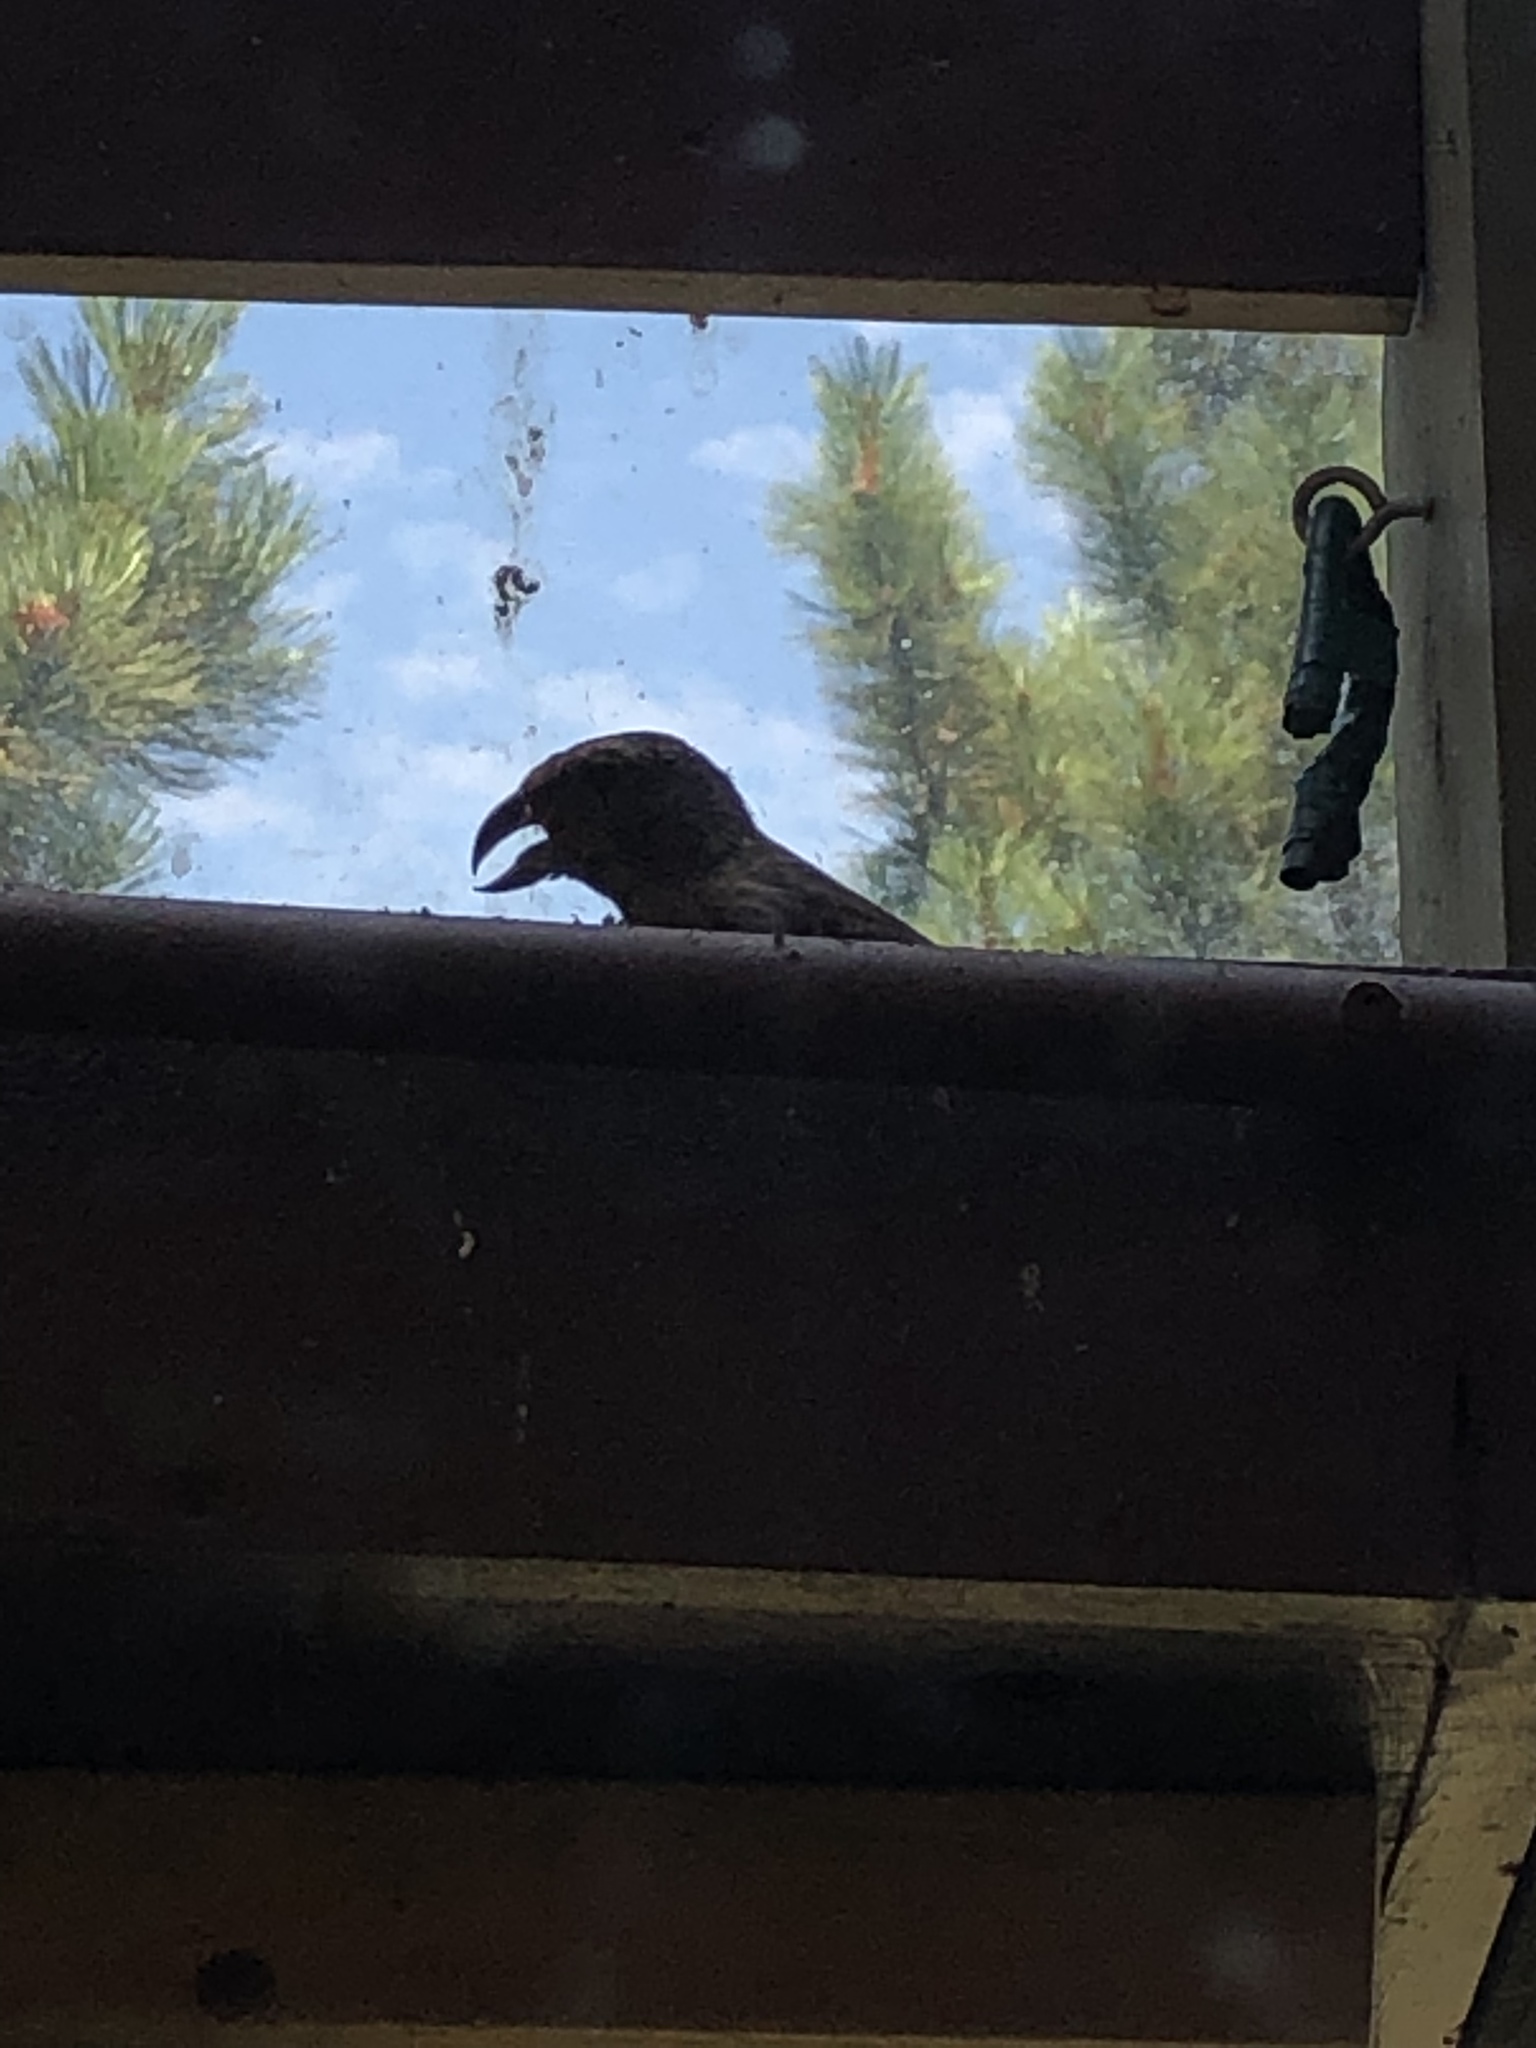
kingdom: Animalia
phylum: Chordata
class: Aves
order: Passeriformes
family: Fringillidae
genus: Loxia
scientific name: Loxia curvirostra
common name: Red crossbill
